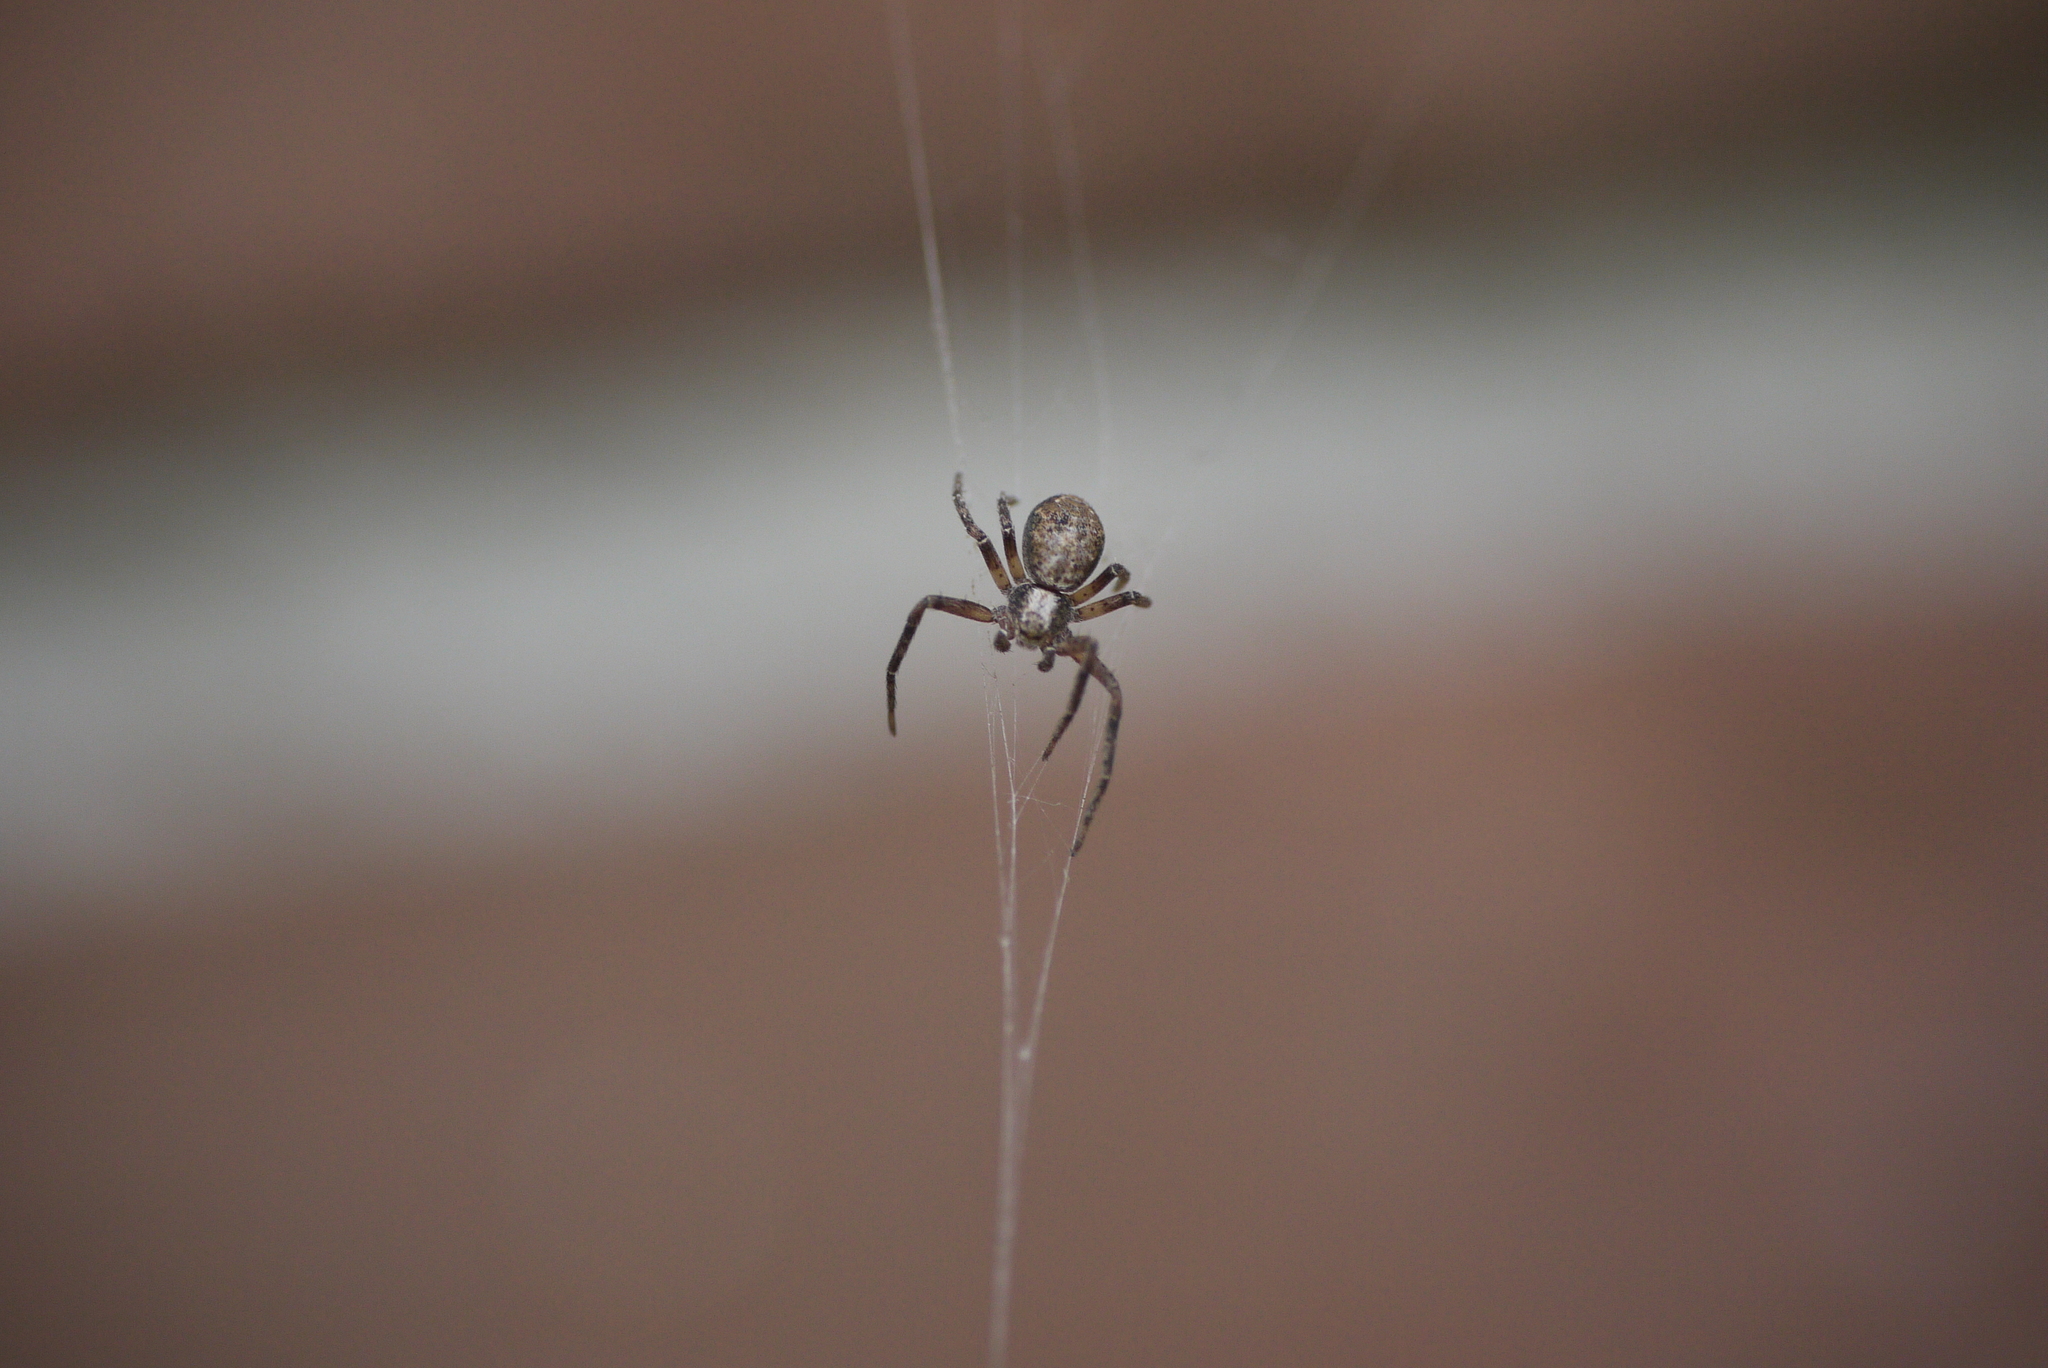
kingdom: Animalia
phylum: Arthropoda
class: Arachnida
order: Araneae
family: Philodromidae
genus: Philodromus
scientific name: Philodromus aureolus
